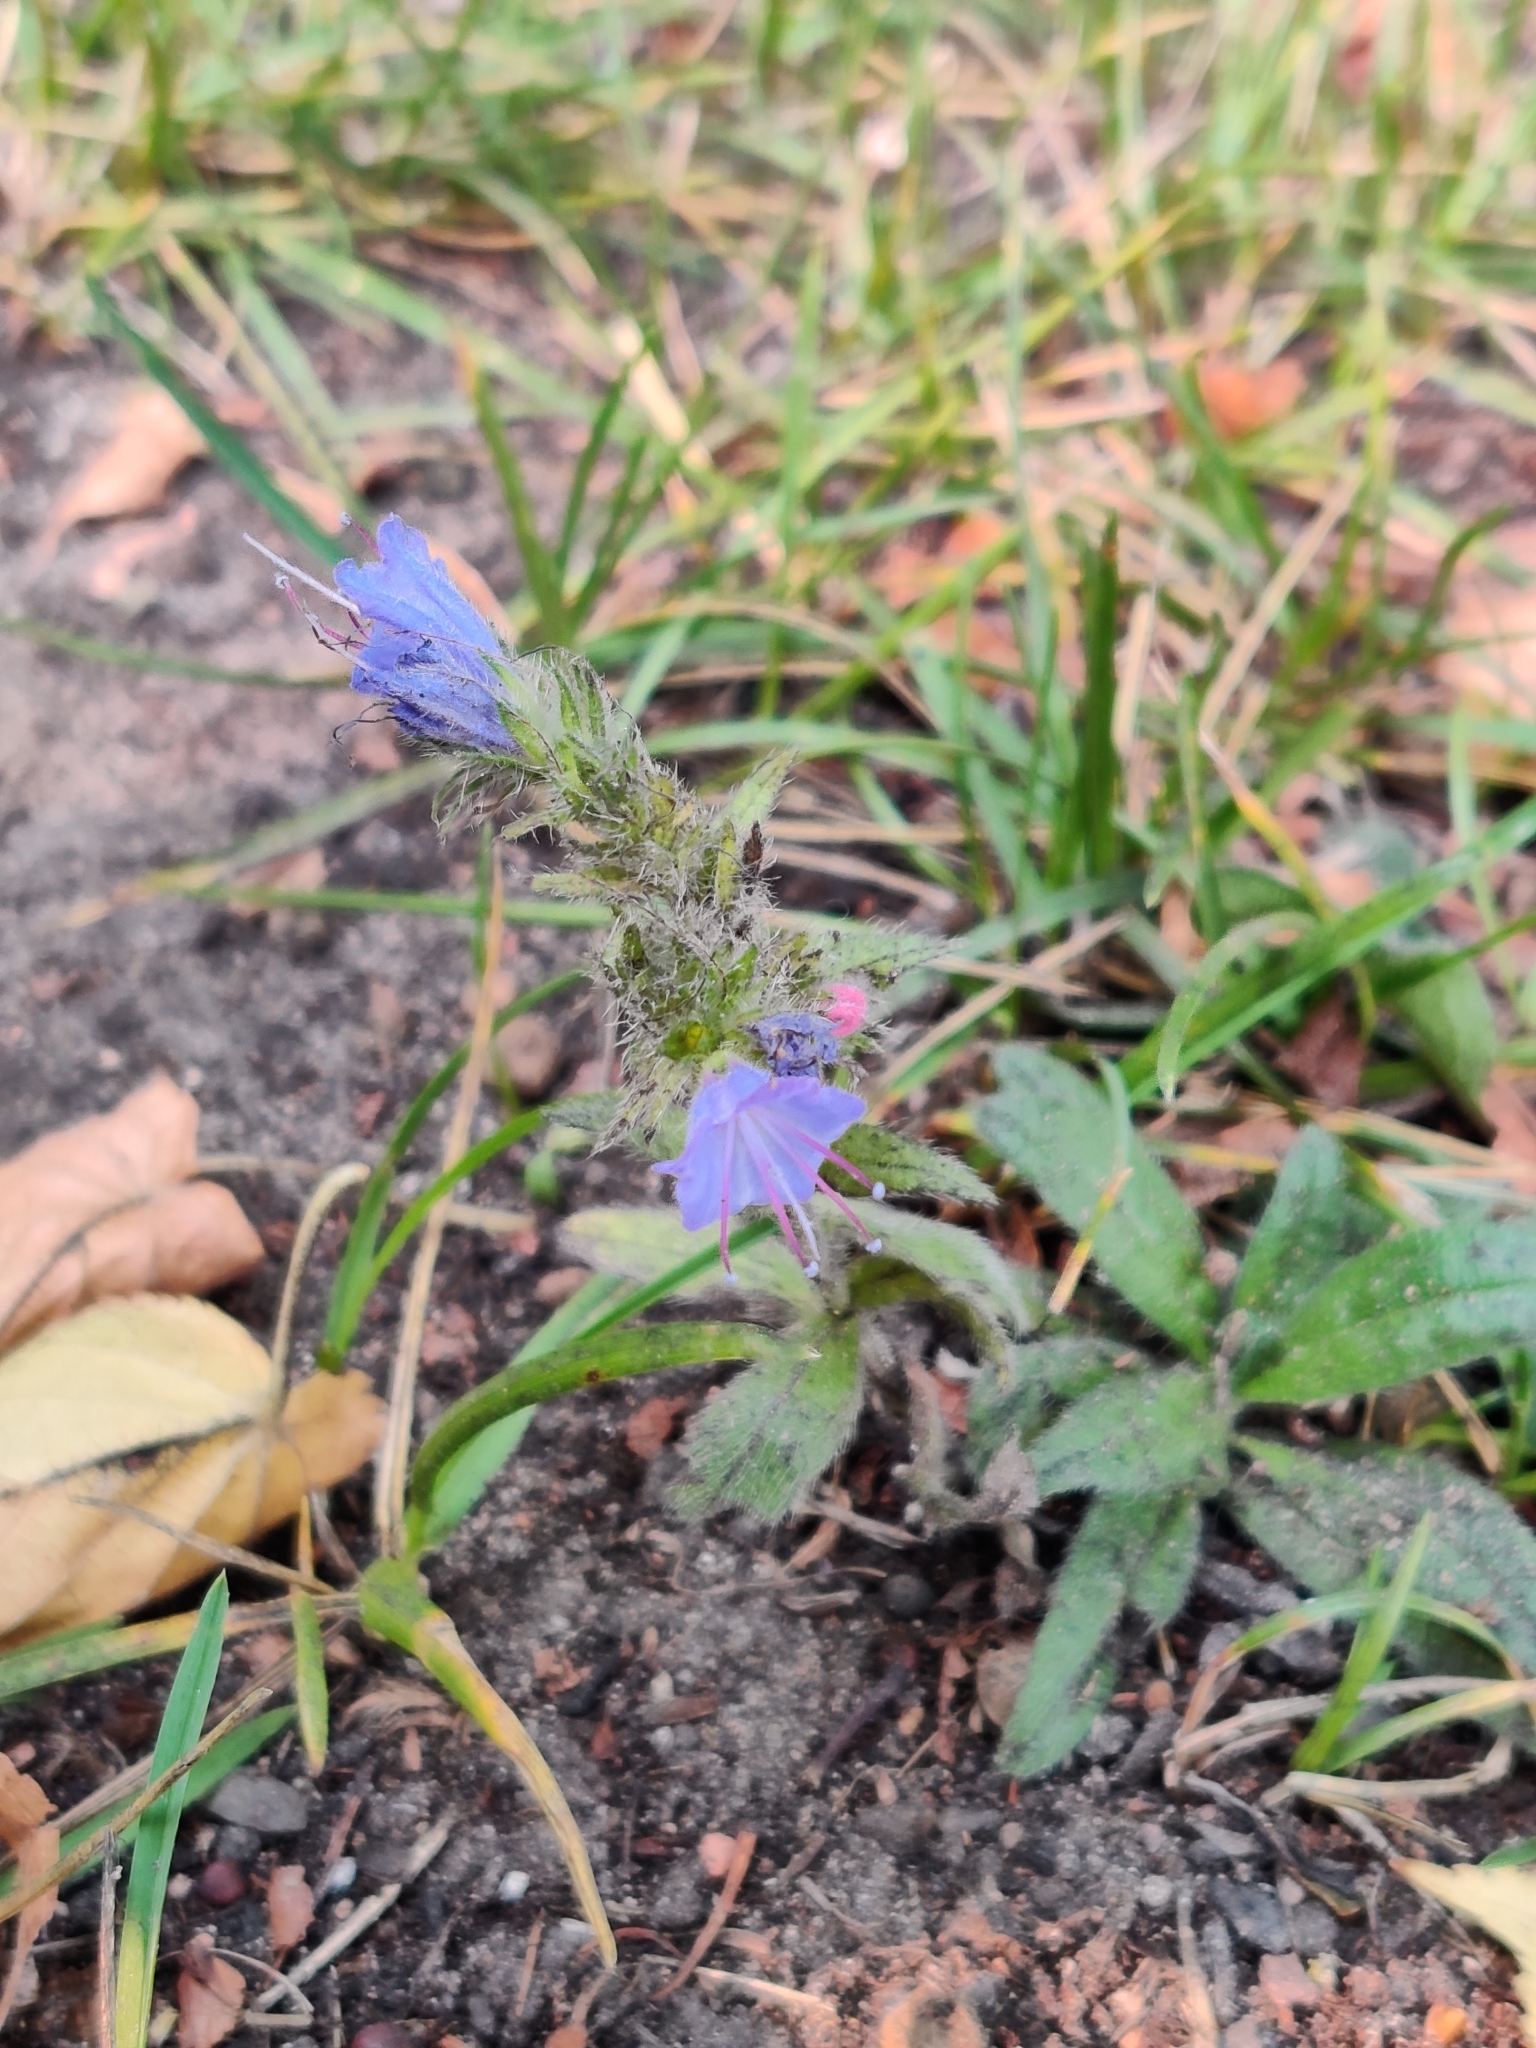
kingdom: Plantae
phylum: Tracheophyta
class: Magnoliopsida
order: Boraginales
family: Boraginaceae
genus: Echium
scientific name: Echium vulgare
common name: Common viper's bugloss
